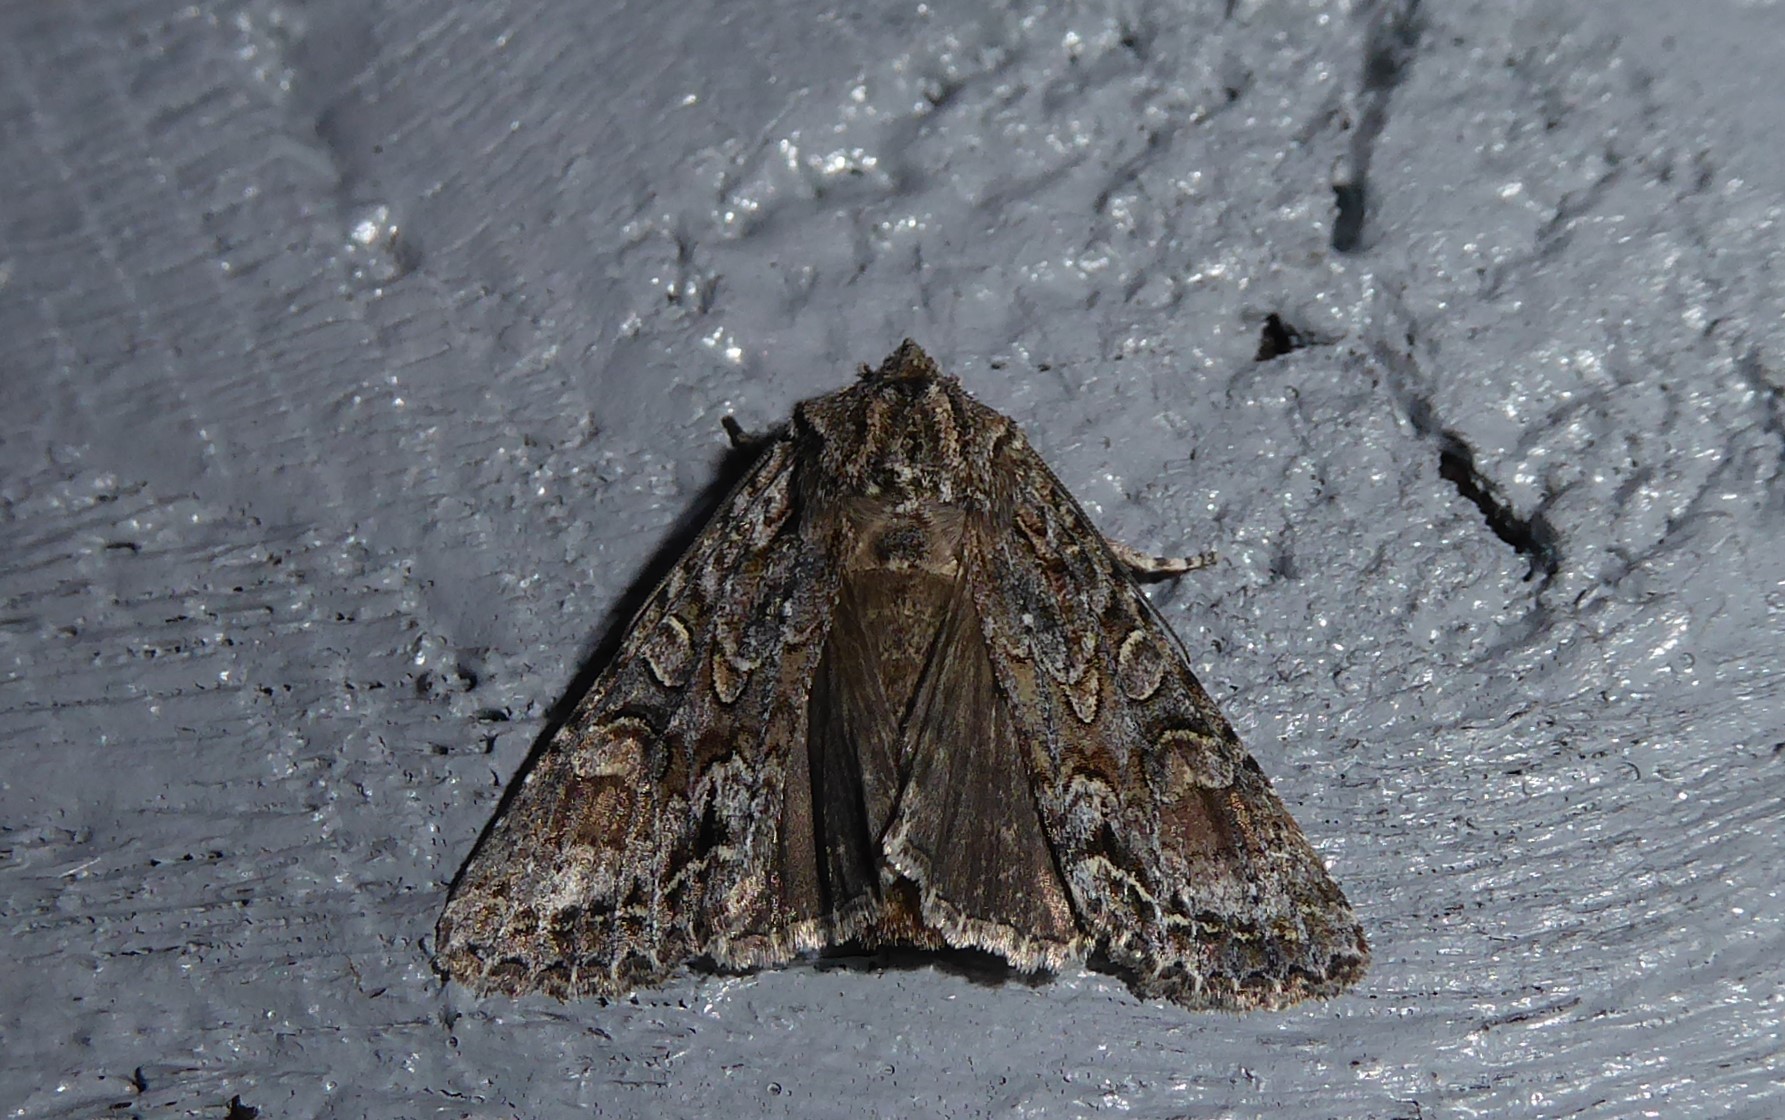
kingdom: Animalia
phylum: Arthropoda
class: Insecta
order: Lepidoptera
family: Noctuidae
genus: Ichneutica
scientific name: Ichneutica mutans
